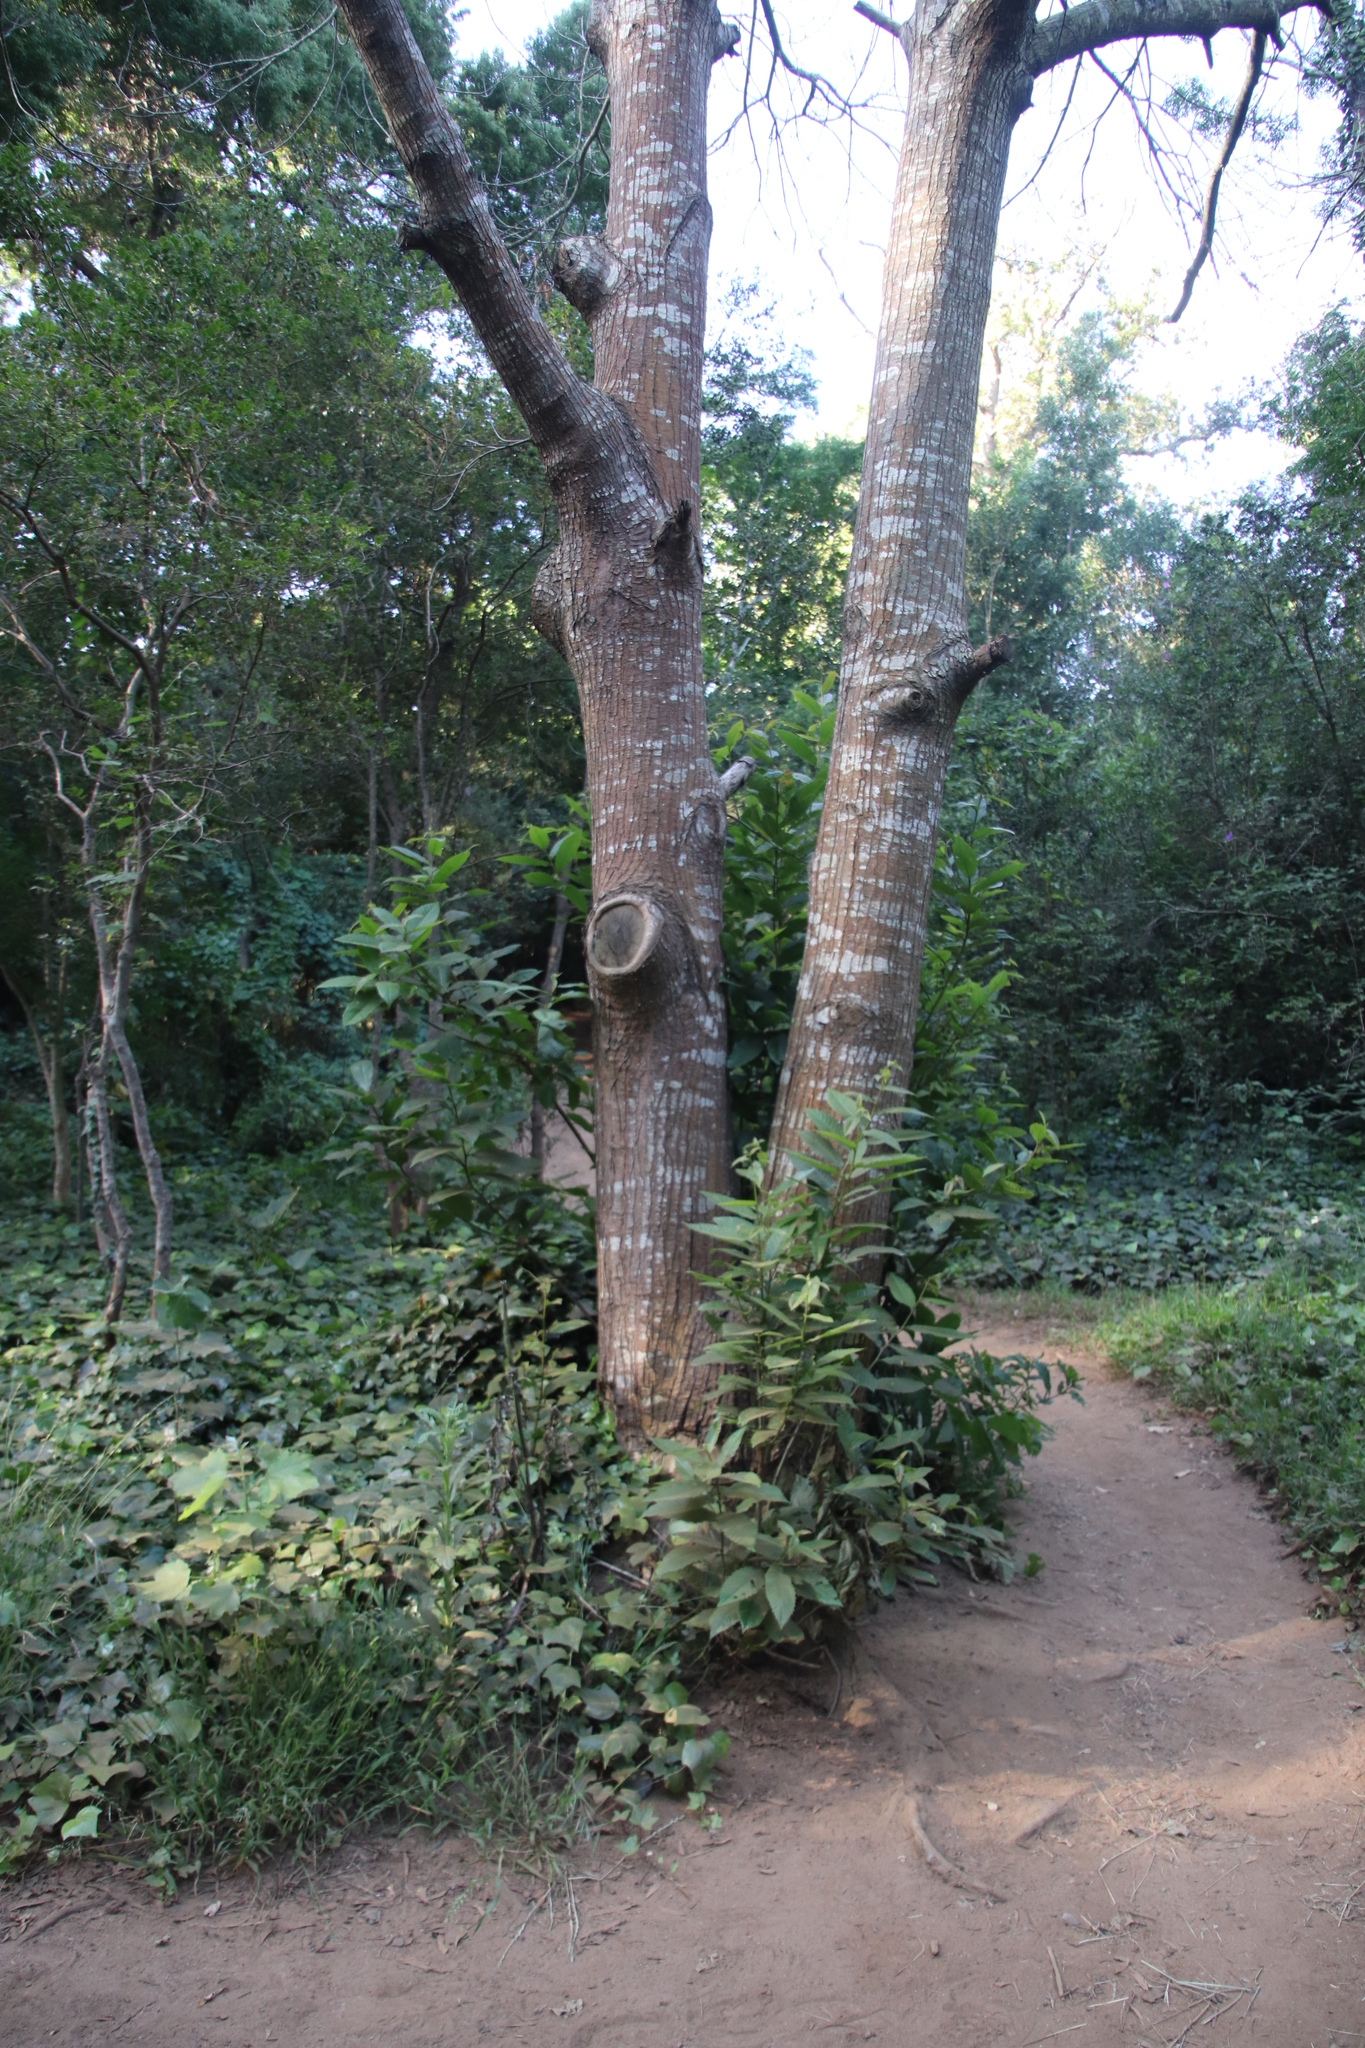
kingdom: Plantae
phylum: Tracheophyta
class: Magnoliopsida
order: Fagales
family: Fagaceae
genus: Castanea
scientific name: Castanea sativa
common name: Sweet chestnut
